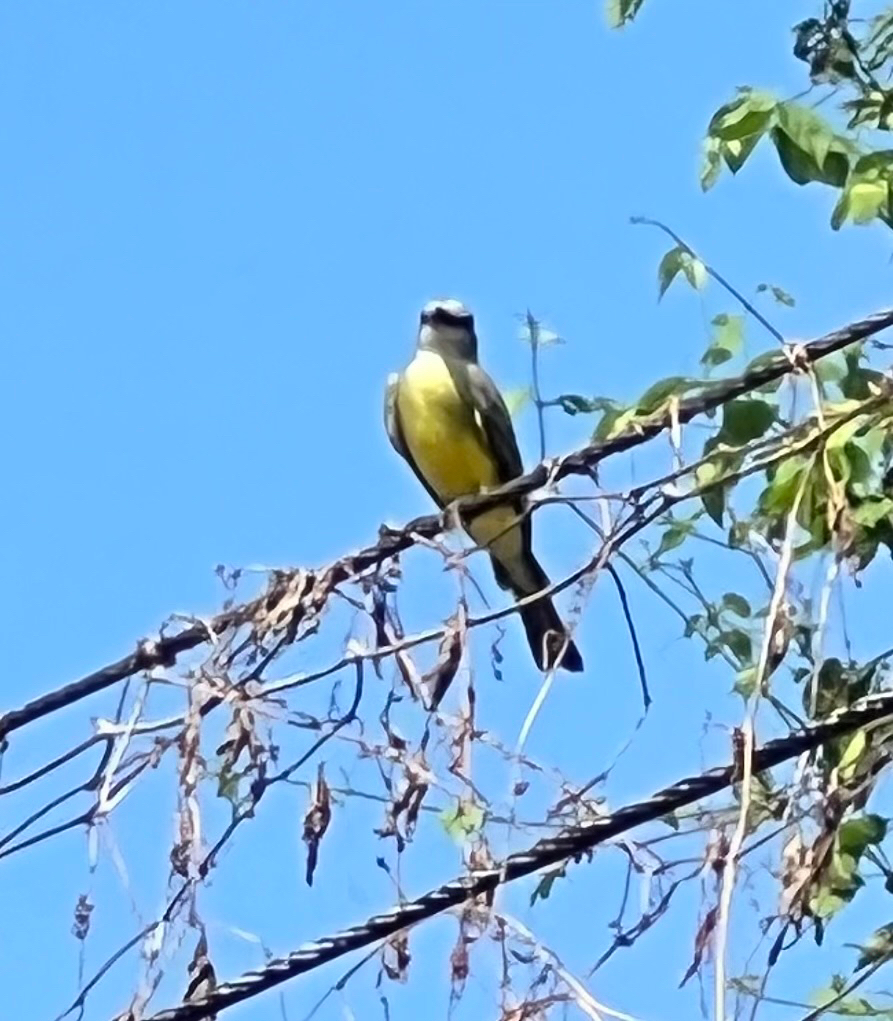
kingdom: Animalia
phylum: Chordata
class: Aves
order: Passeriformes
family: Tyrannidae
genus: Tyrannus
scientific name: Tyrannus melancholicus
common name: Tropical kingbird
